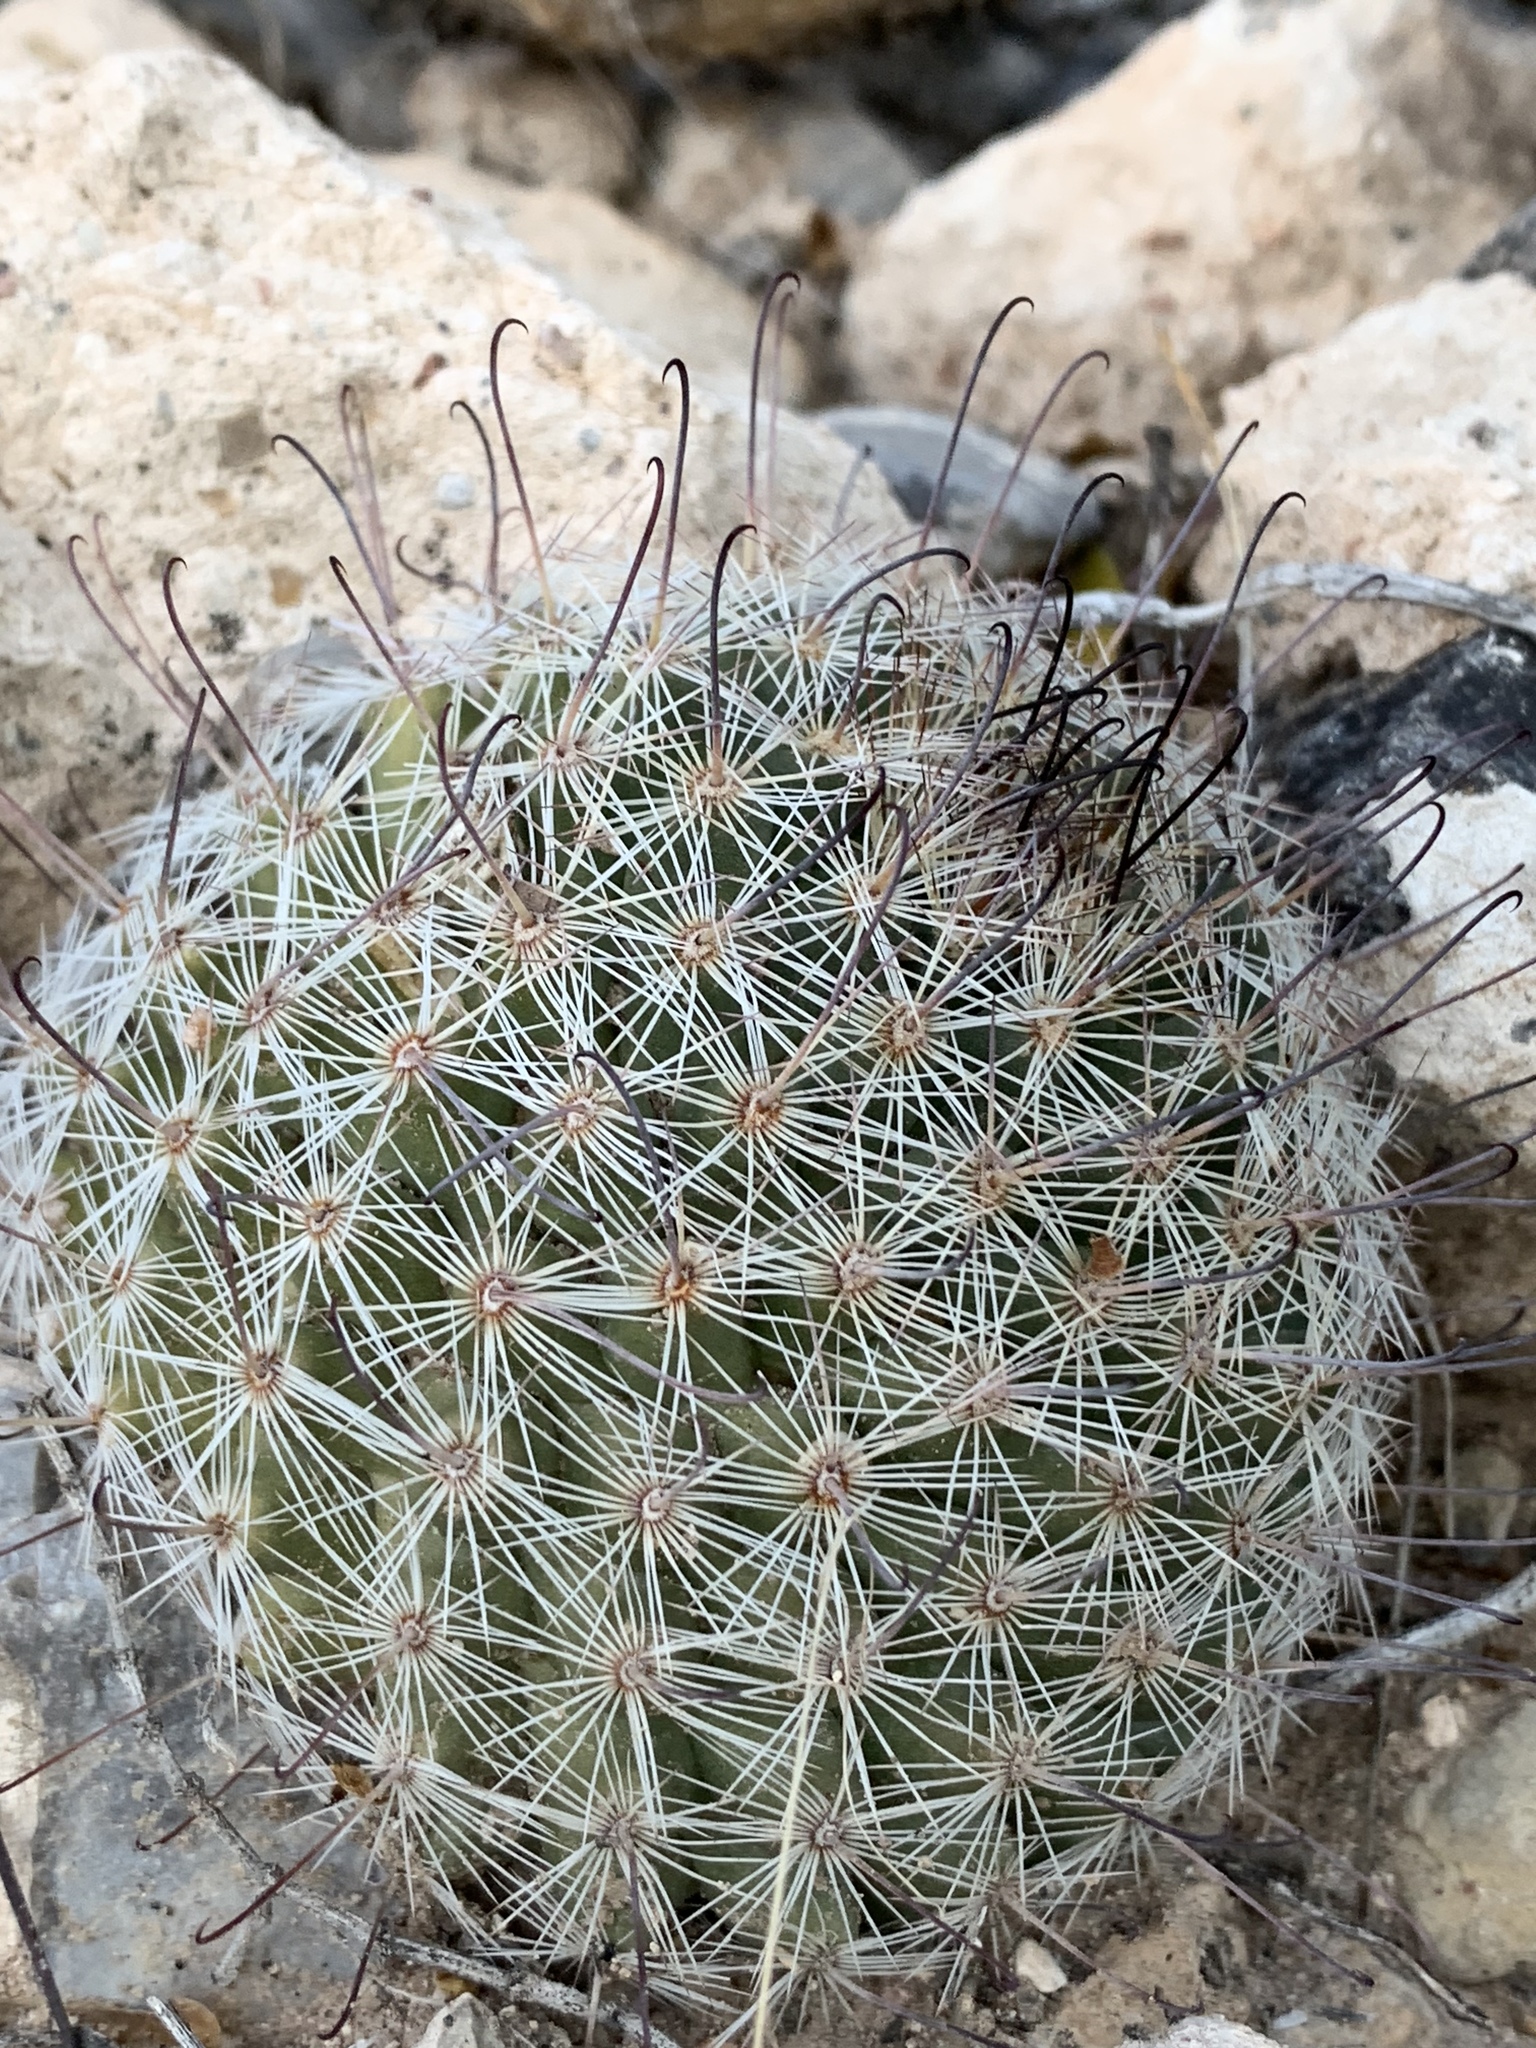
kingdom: Plantae
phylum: Tracheophyta
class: Magnoliopsida
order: Caryophyllales
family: Cactaceae
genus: Cochemiea
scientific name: Cochemiea grahamii
